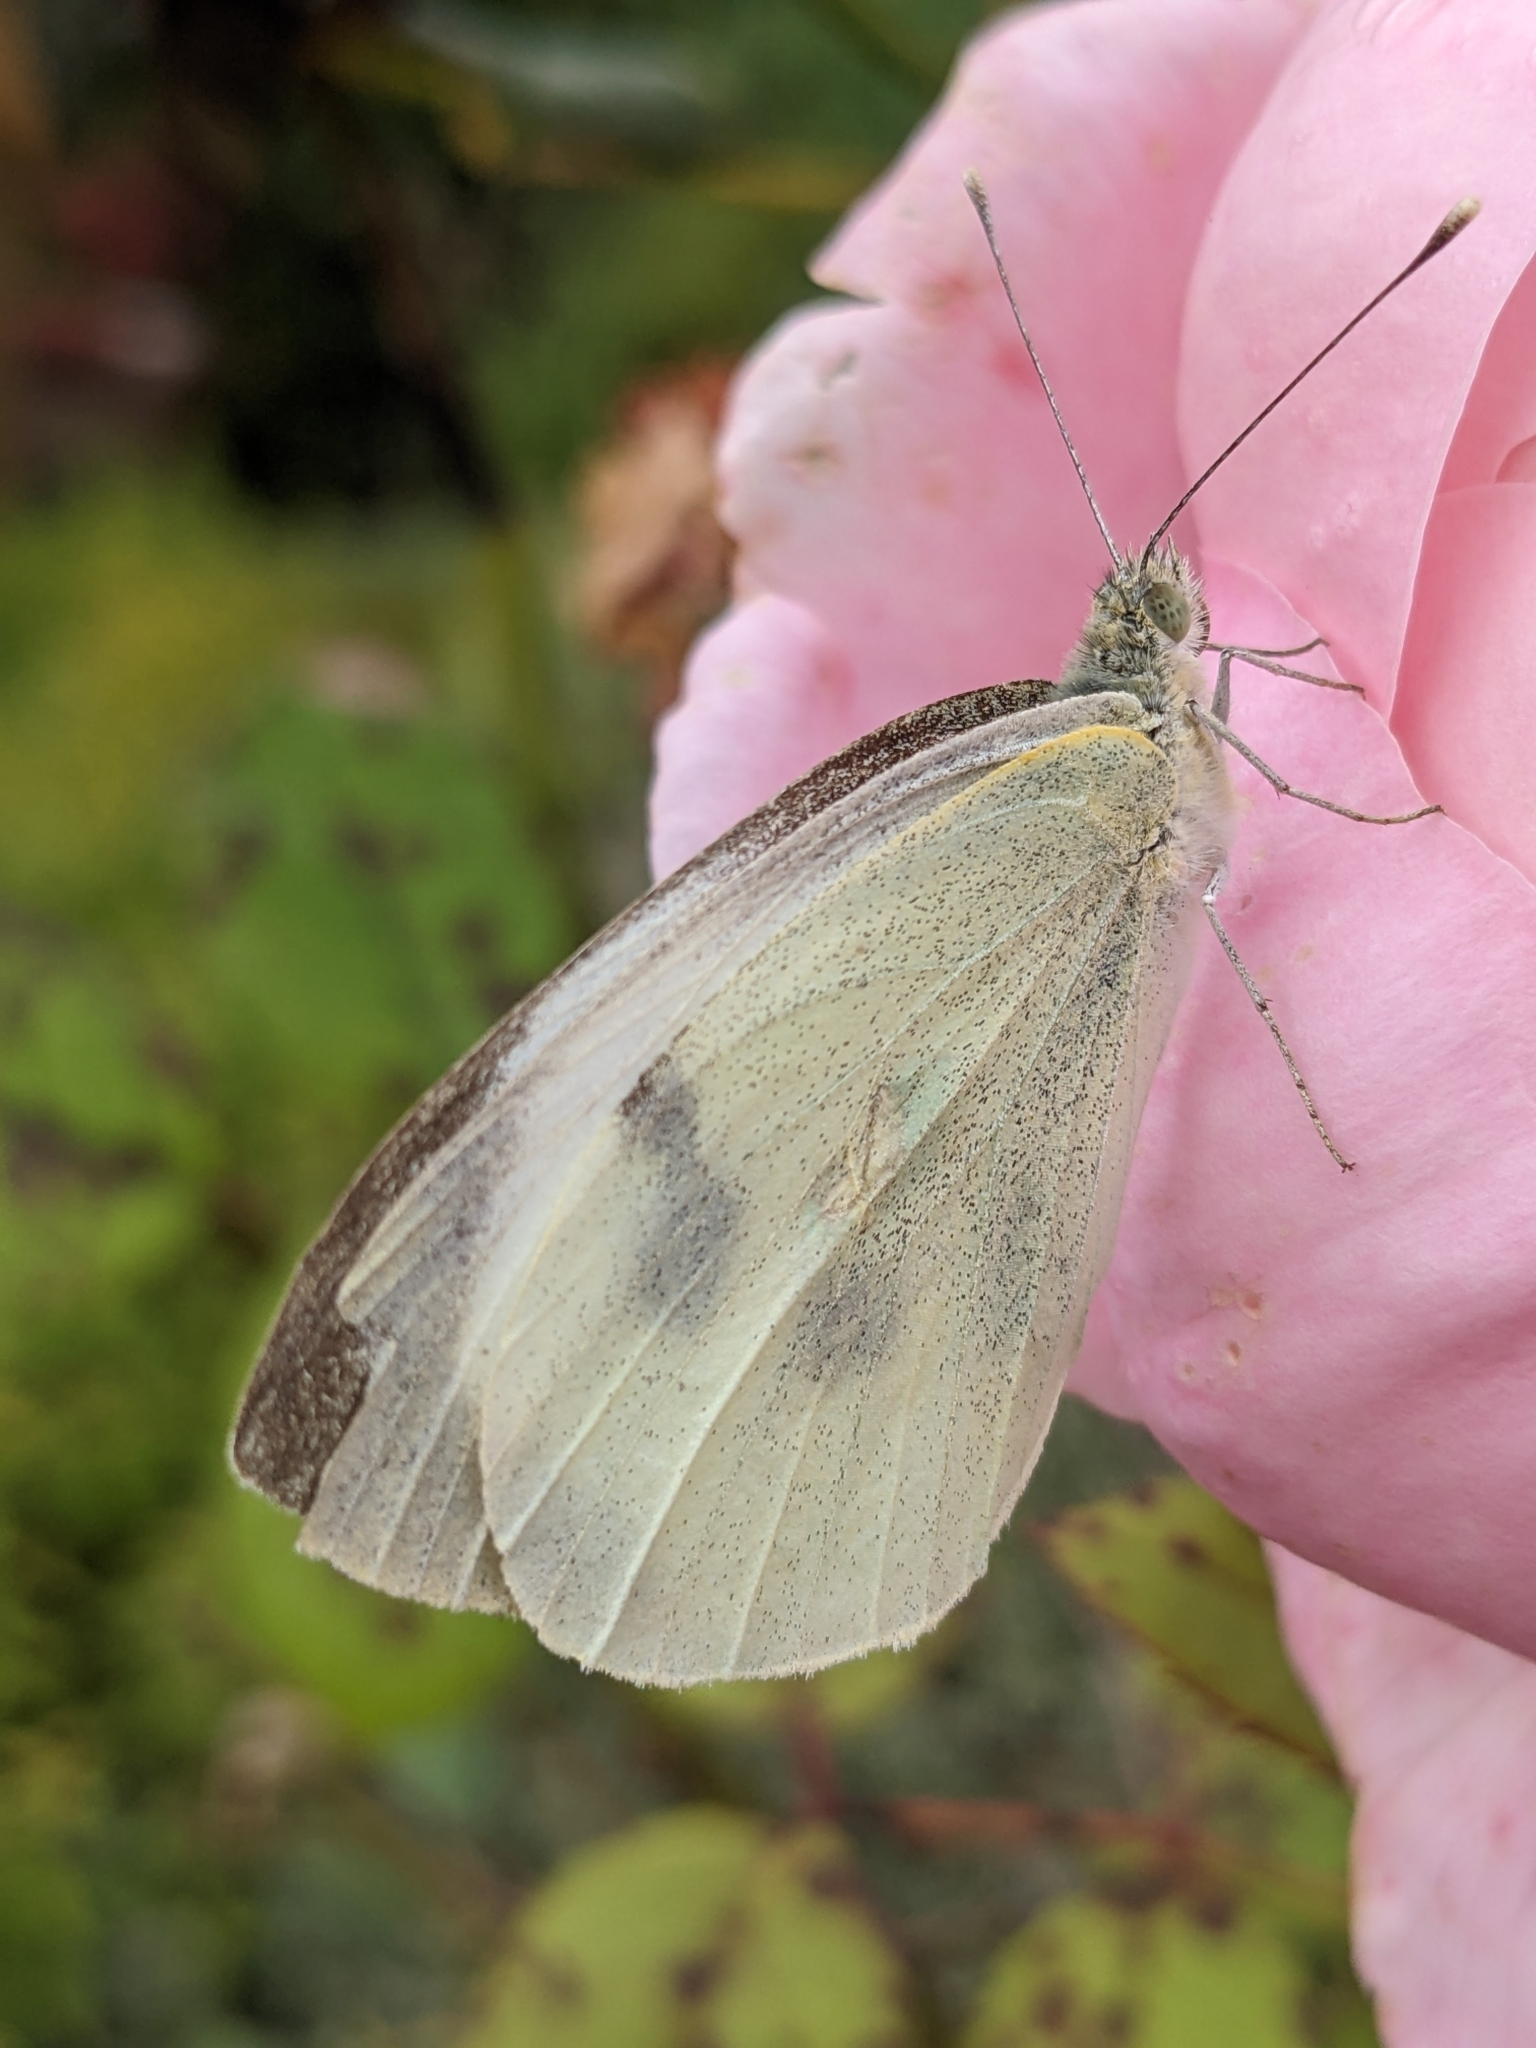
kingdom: Animalia
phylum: Arthropoda
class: Insecta
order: Lepidoptera
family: Pieridae
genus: Pieris
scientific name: Pieris brassicae
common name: Large white
